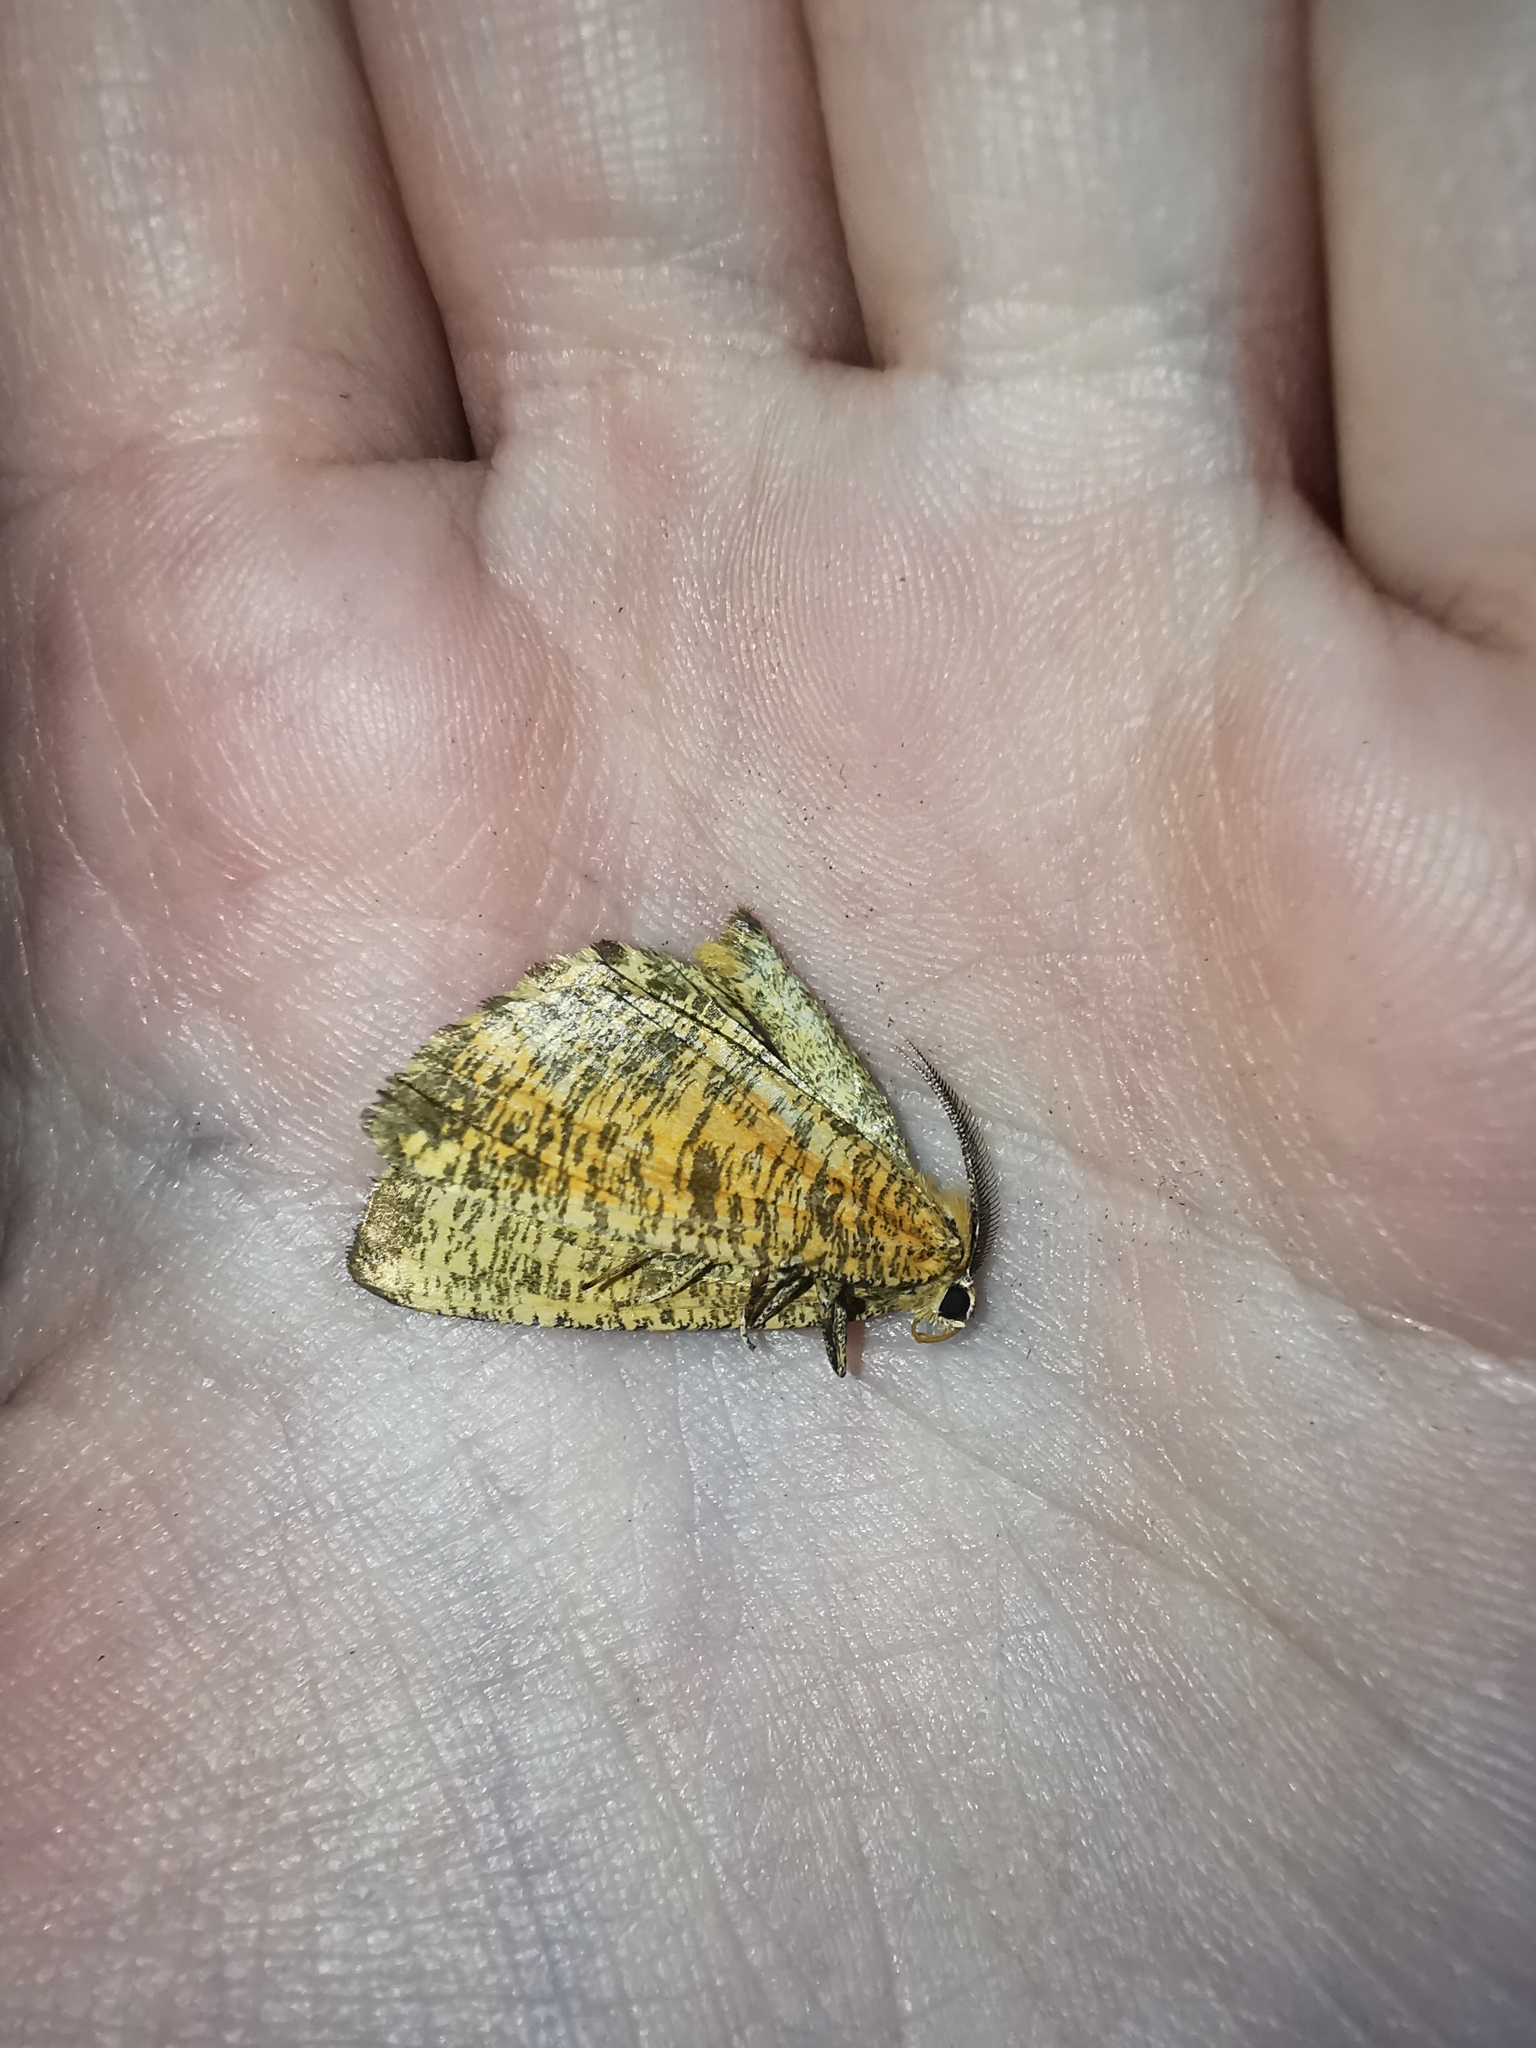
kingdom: Animalia
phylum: Arthropoda
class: Insecta
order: Lepidoptera
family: Geometridae
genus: Angerona
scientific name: Angerona prunaria
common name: Orange moth
